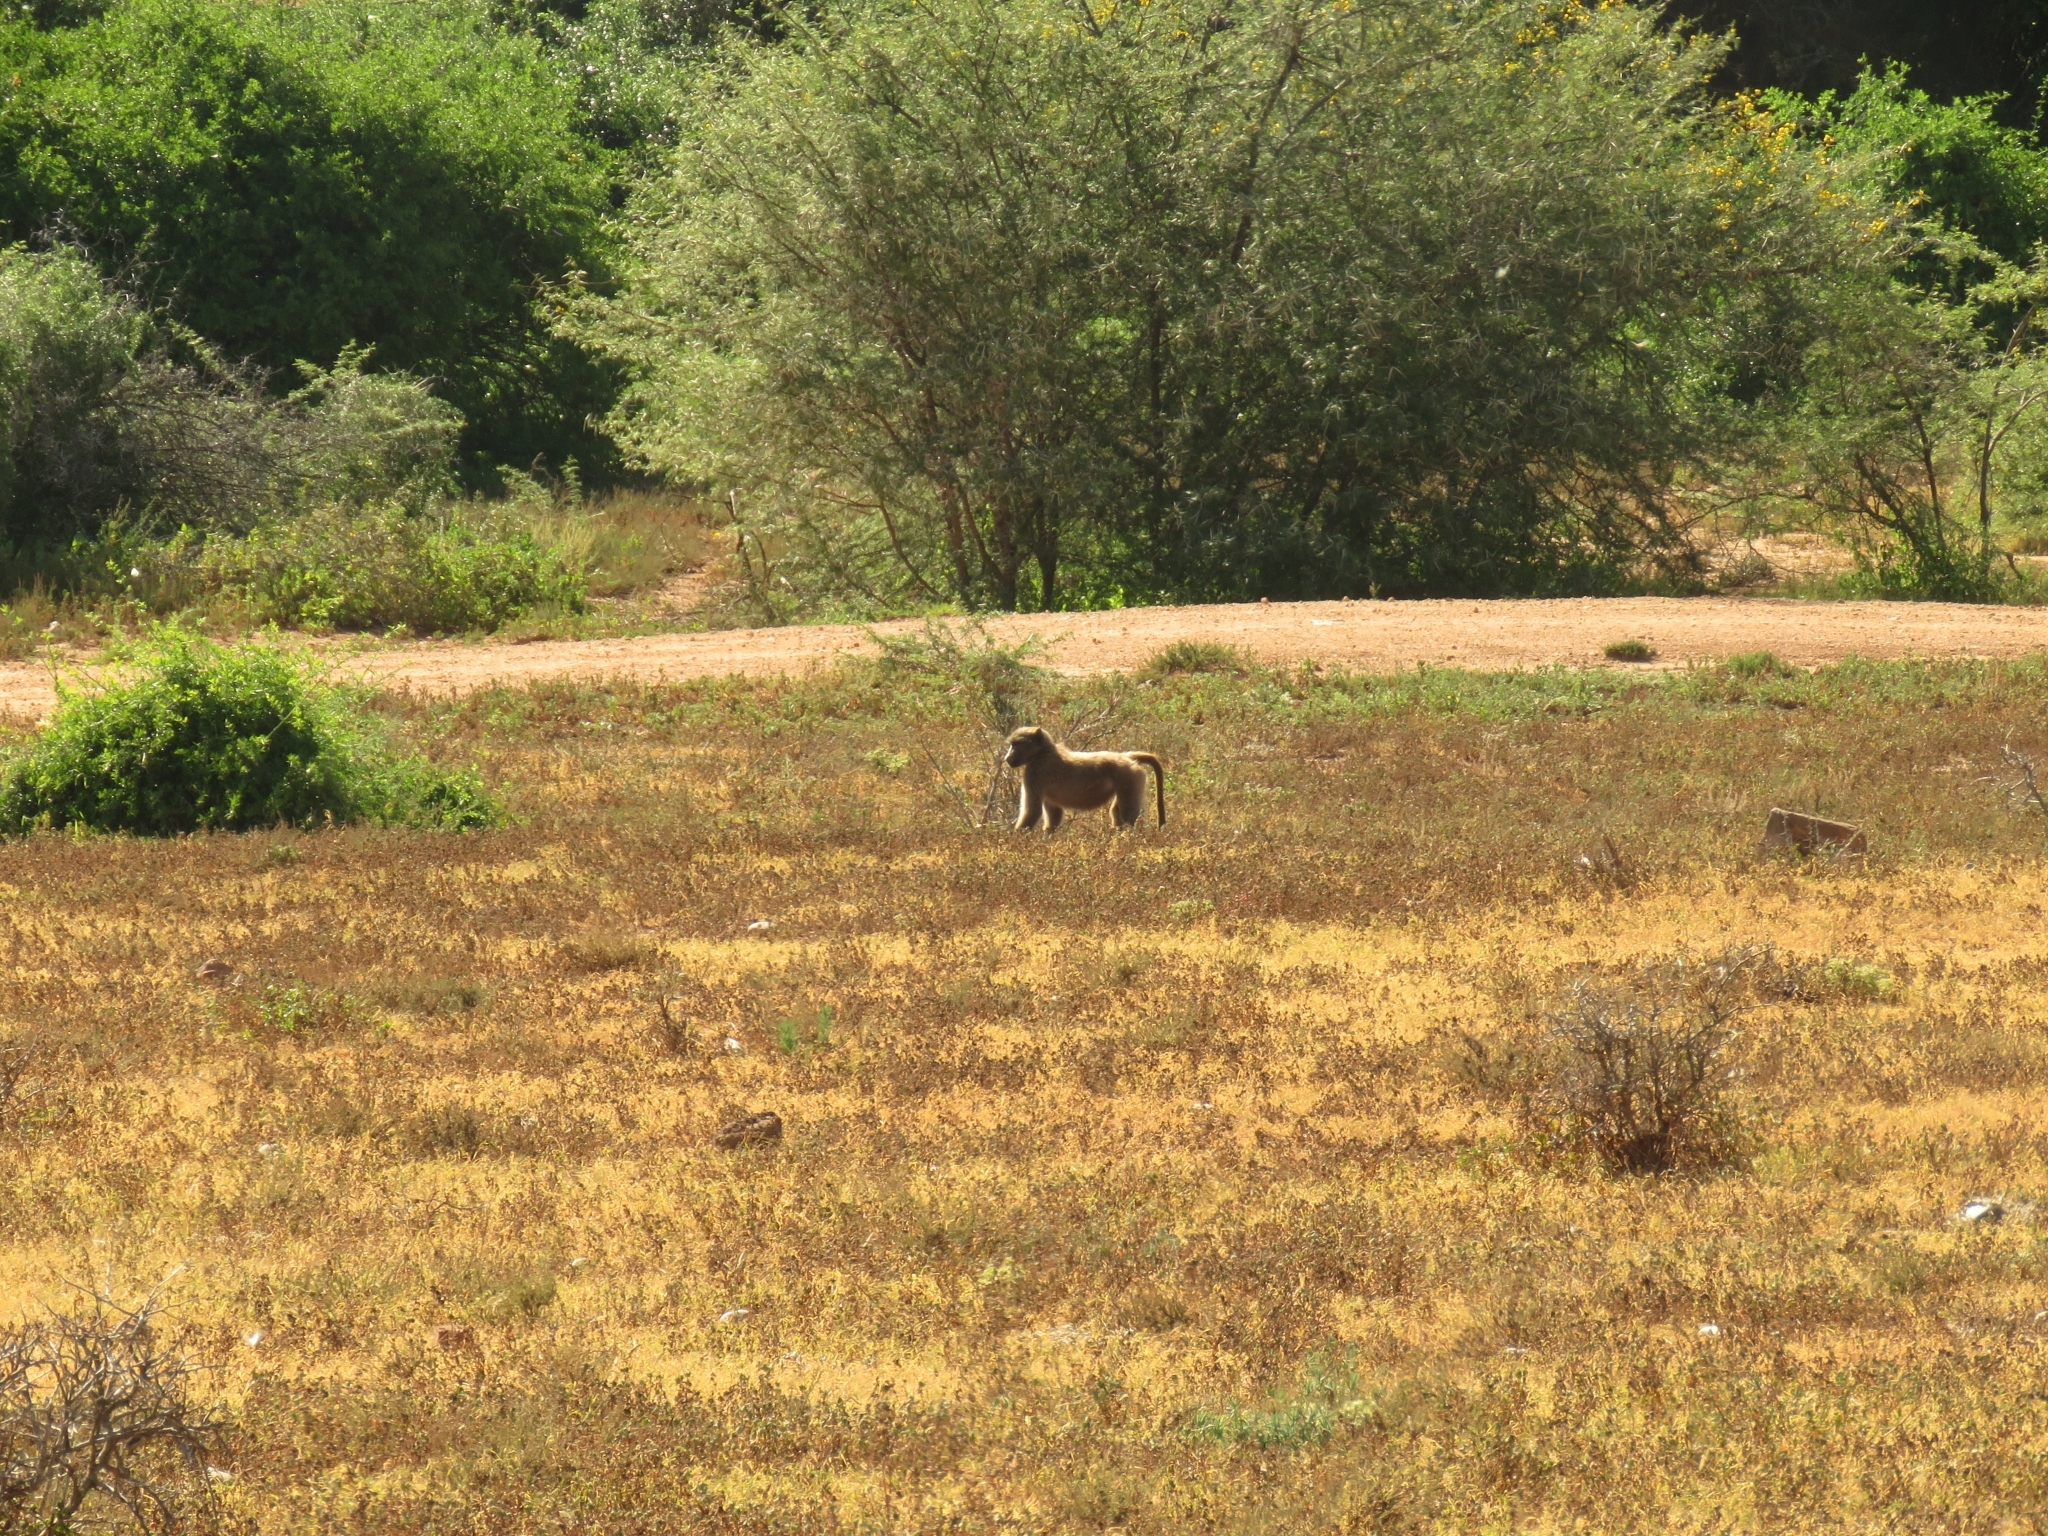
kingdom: Animalia
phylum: Chordata
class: Mammalia
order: Primates
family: Cercopithecidae
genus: Papio
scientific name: Papio ursinus
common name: Chacma baboon
